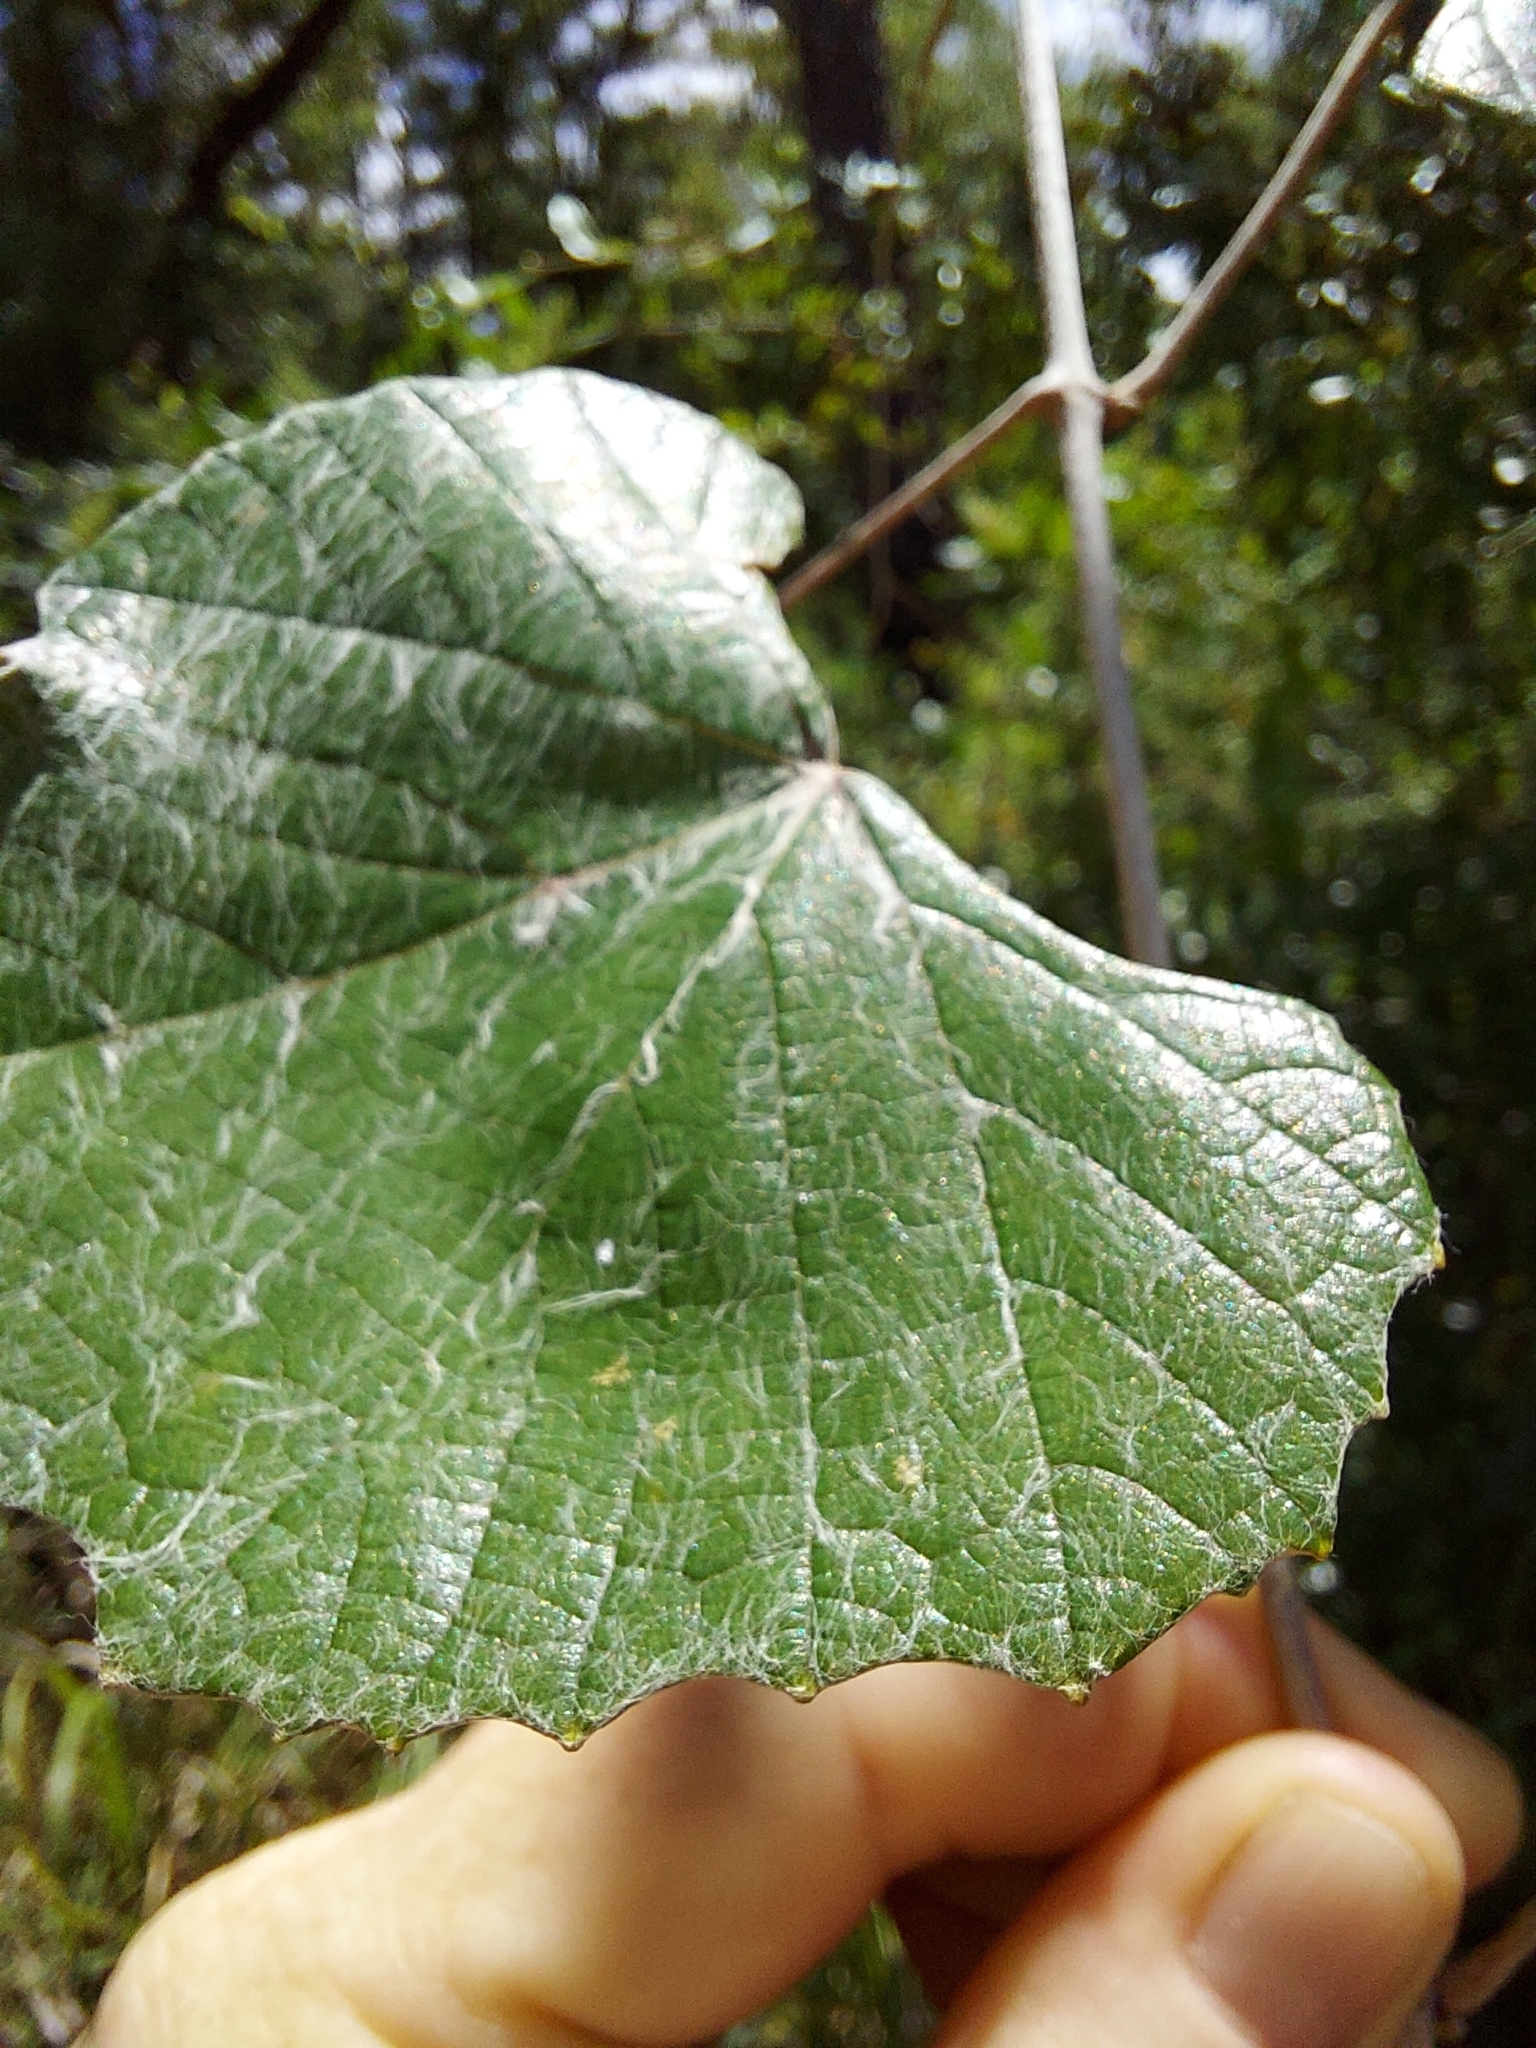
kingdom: Plantae
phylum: Tracheophyta
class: Magnoliopsida
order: Vitales
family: Vitaceae
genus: Vitis
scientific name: Vitis shuttleworthii
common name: Caloosa grape
